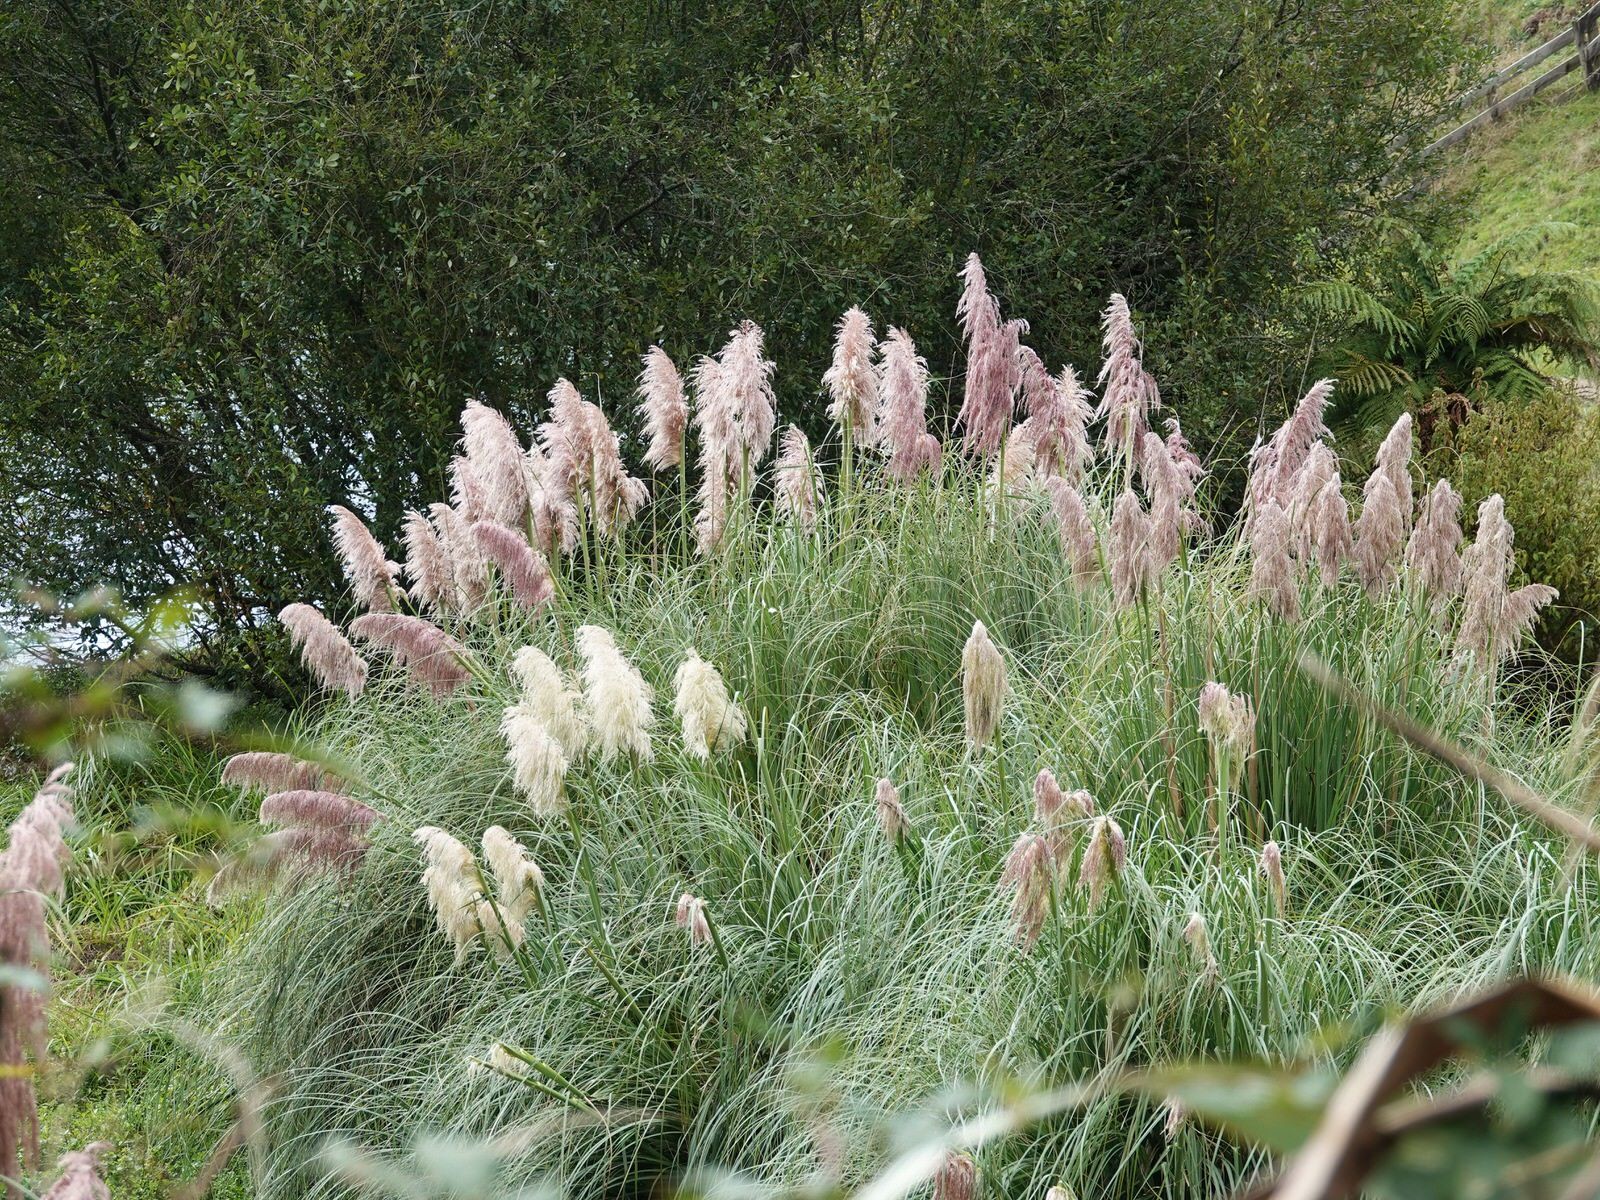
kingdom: Plantae
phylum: Tracheophyta
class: Liliopsida
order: Poales
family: Poaceae
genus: Cortaderia
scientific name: Cortaderia selloana
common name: Uruguayan pampas grass
